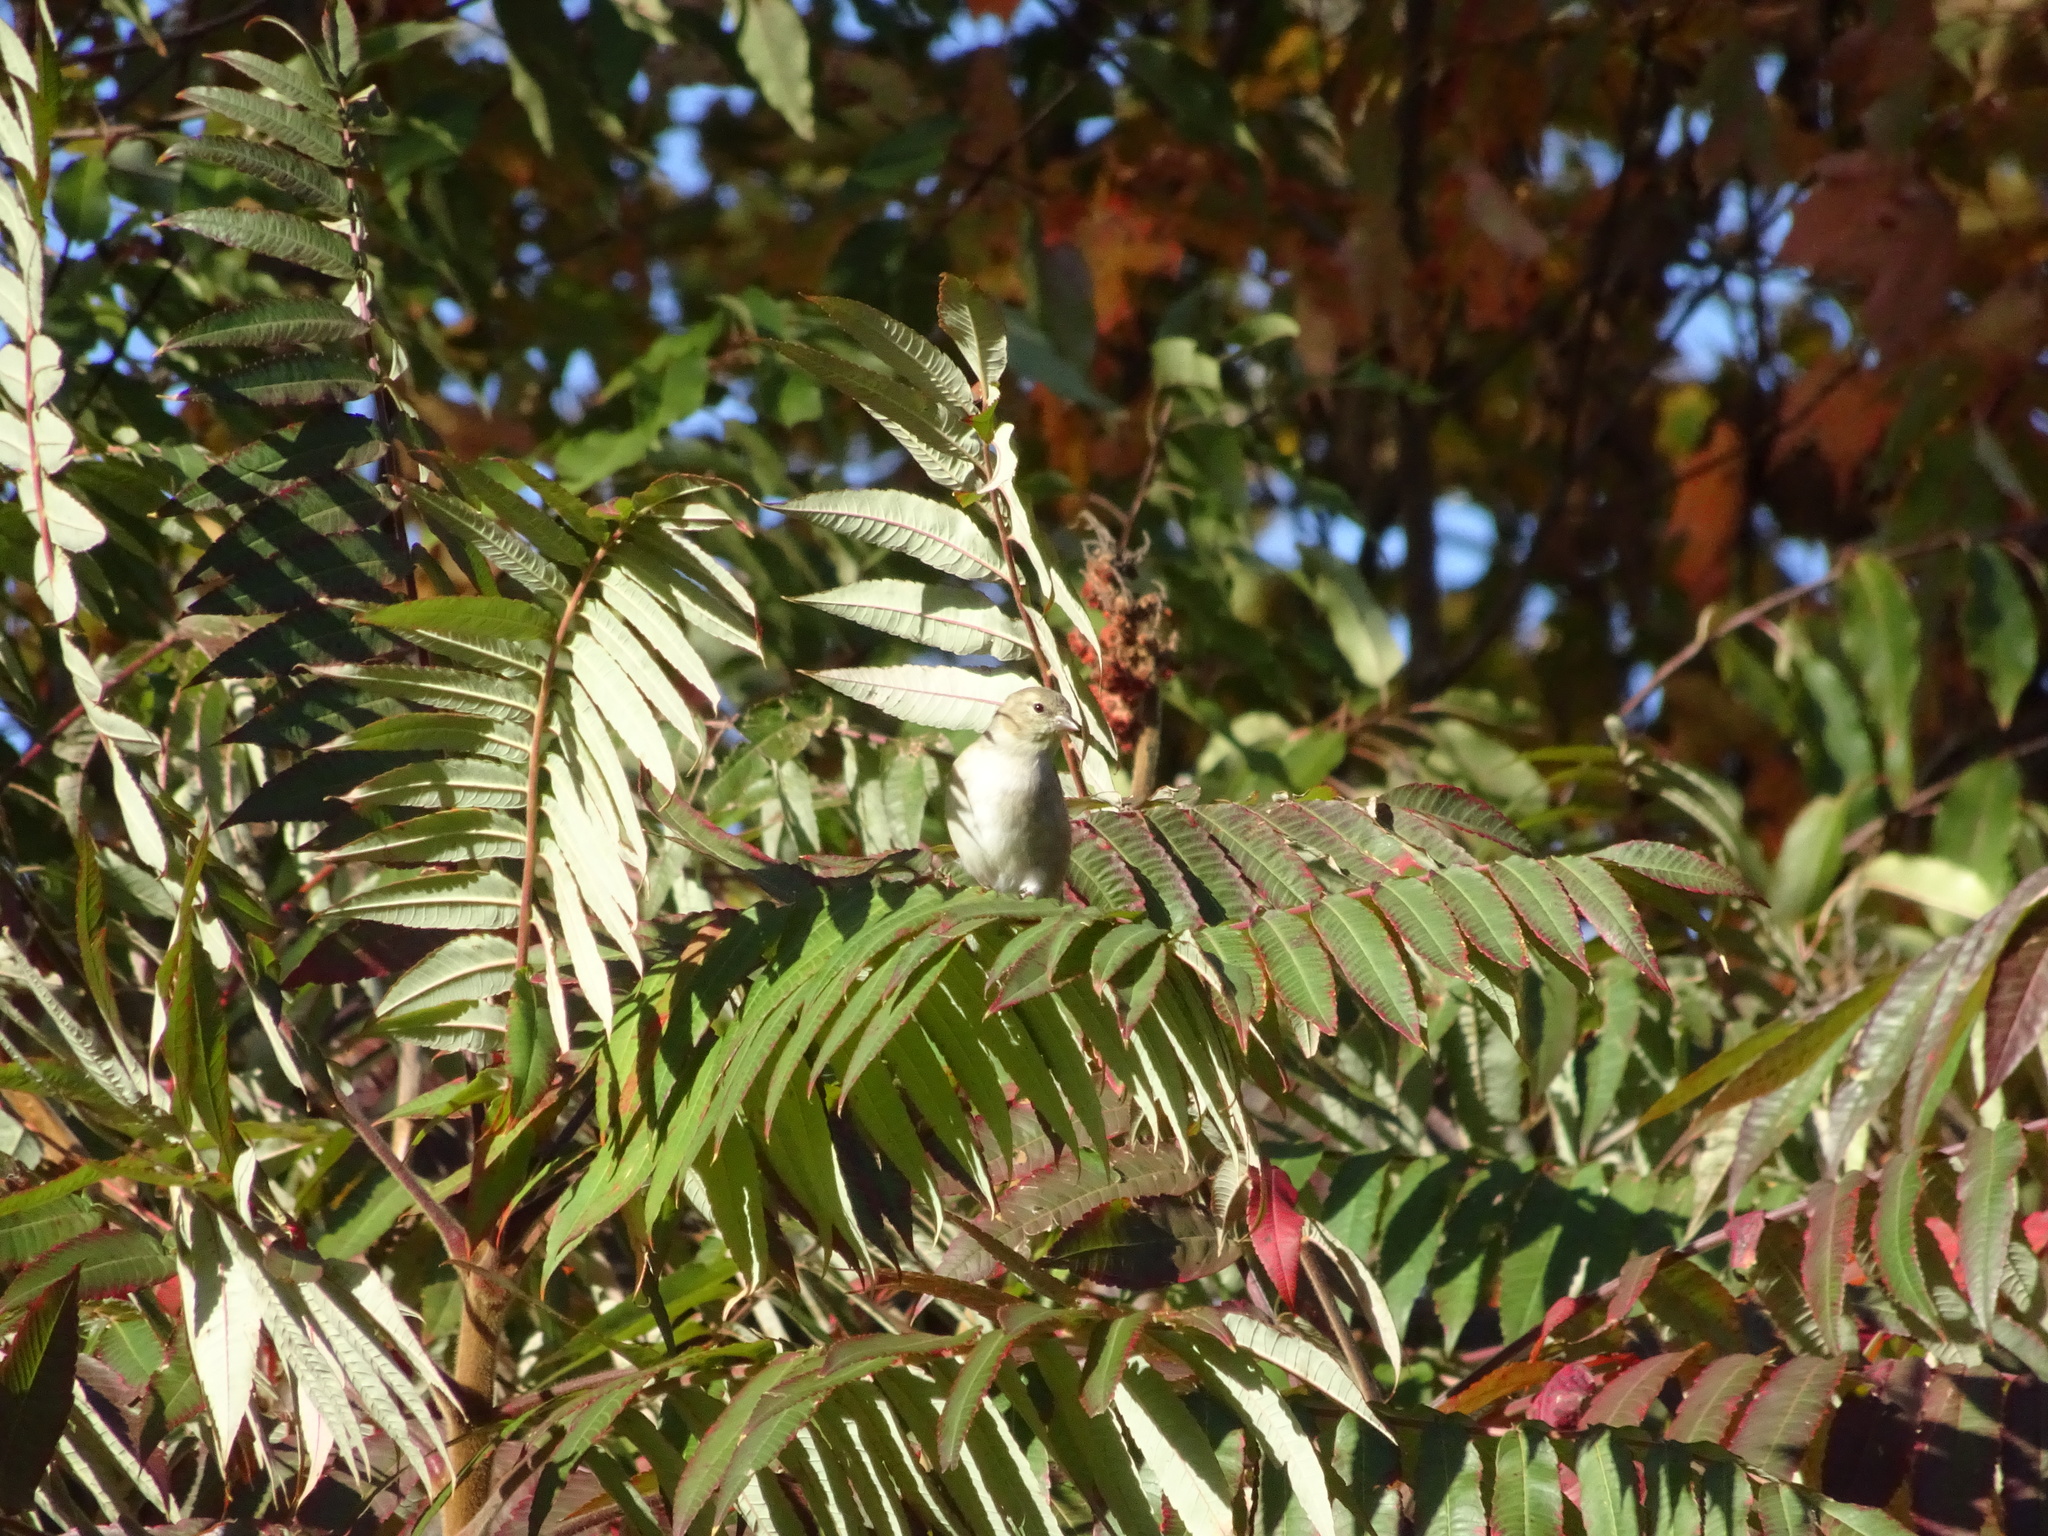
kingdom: Animalia
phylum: Chordata
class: Aves
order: Passeriformes
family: Fringillidae
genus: Spinus
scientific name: Spinus tristis
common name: American goldfinch
